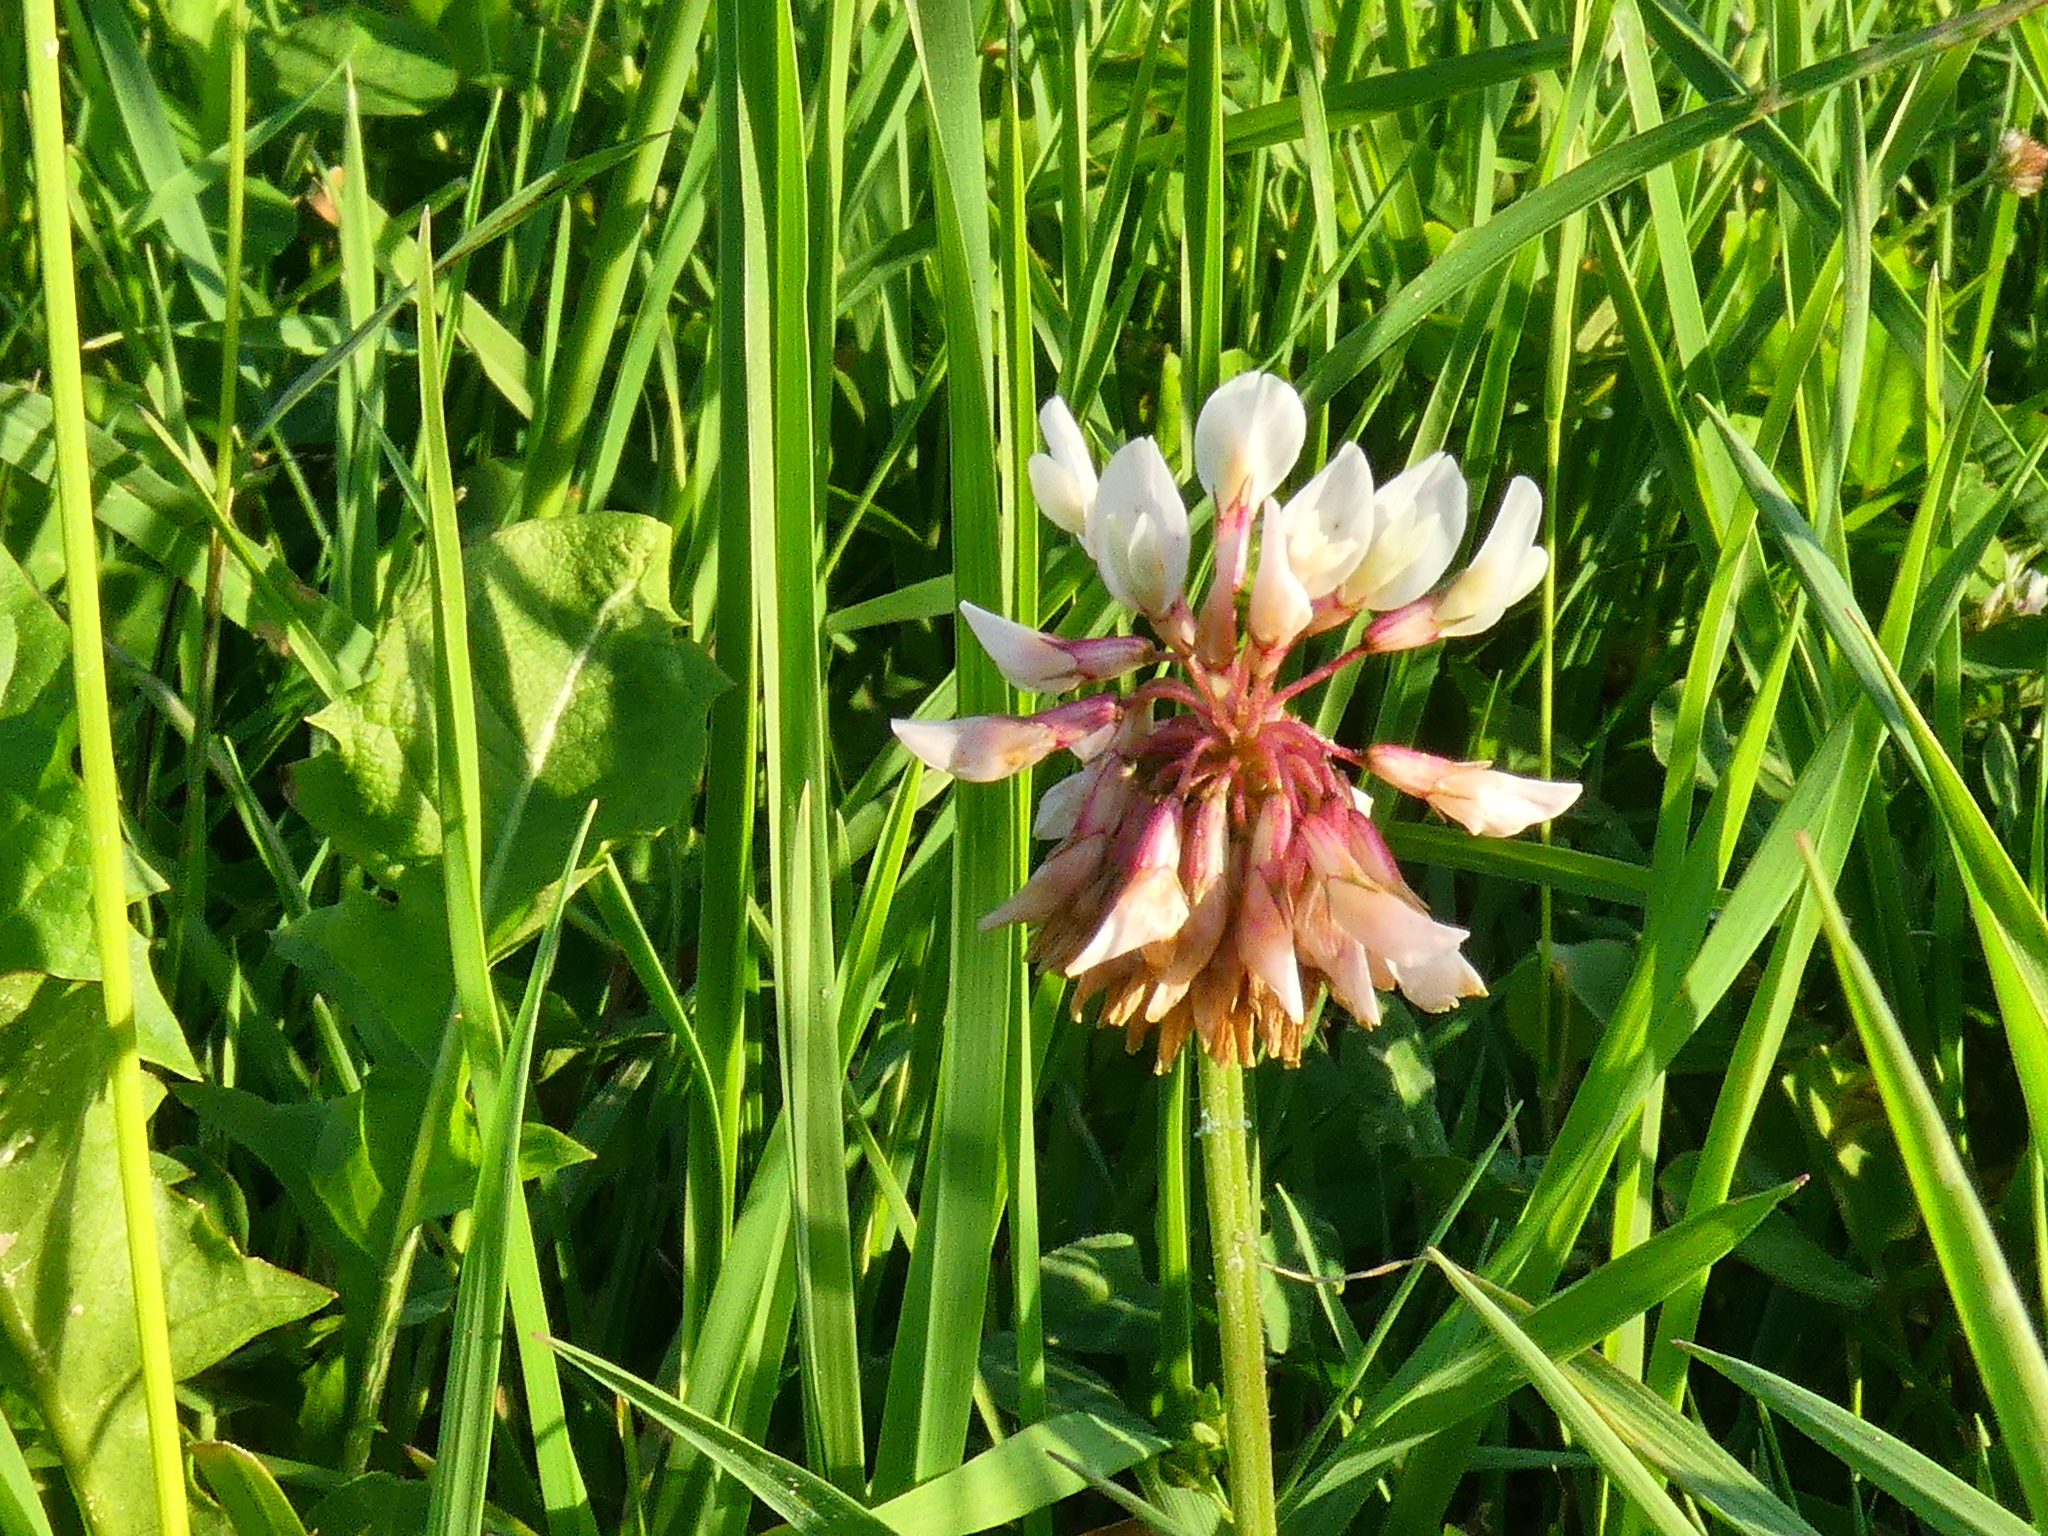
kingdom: Plantae
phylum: Tracheophyta
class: Magnoliopsida
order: Fabales
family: Fabaceae
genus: Trifolium
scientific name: Trifolium repens
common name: White clover
